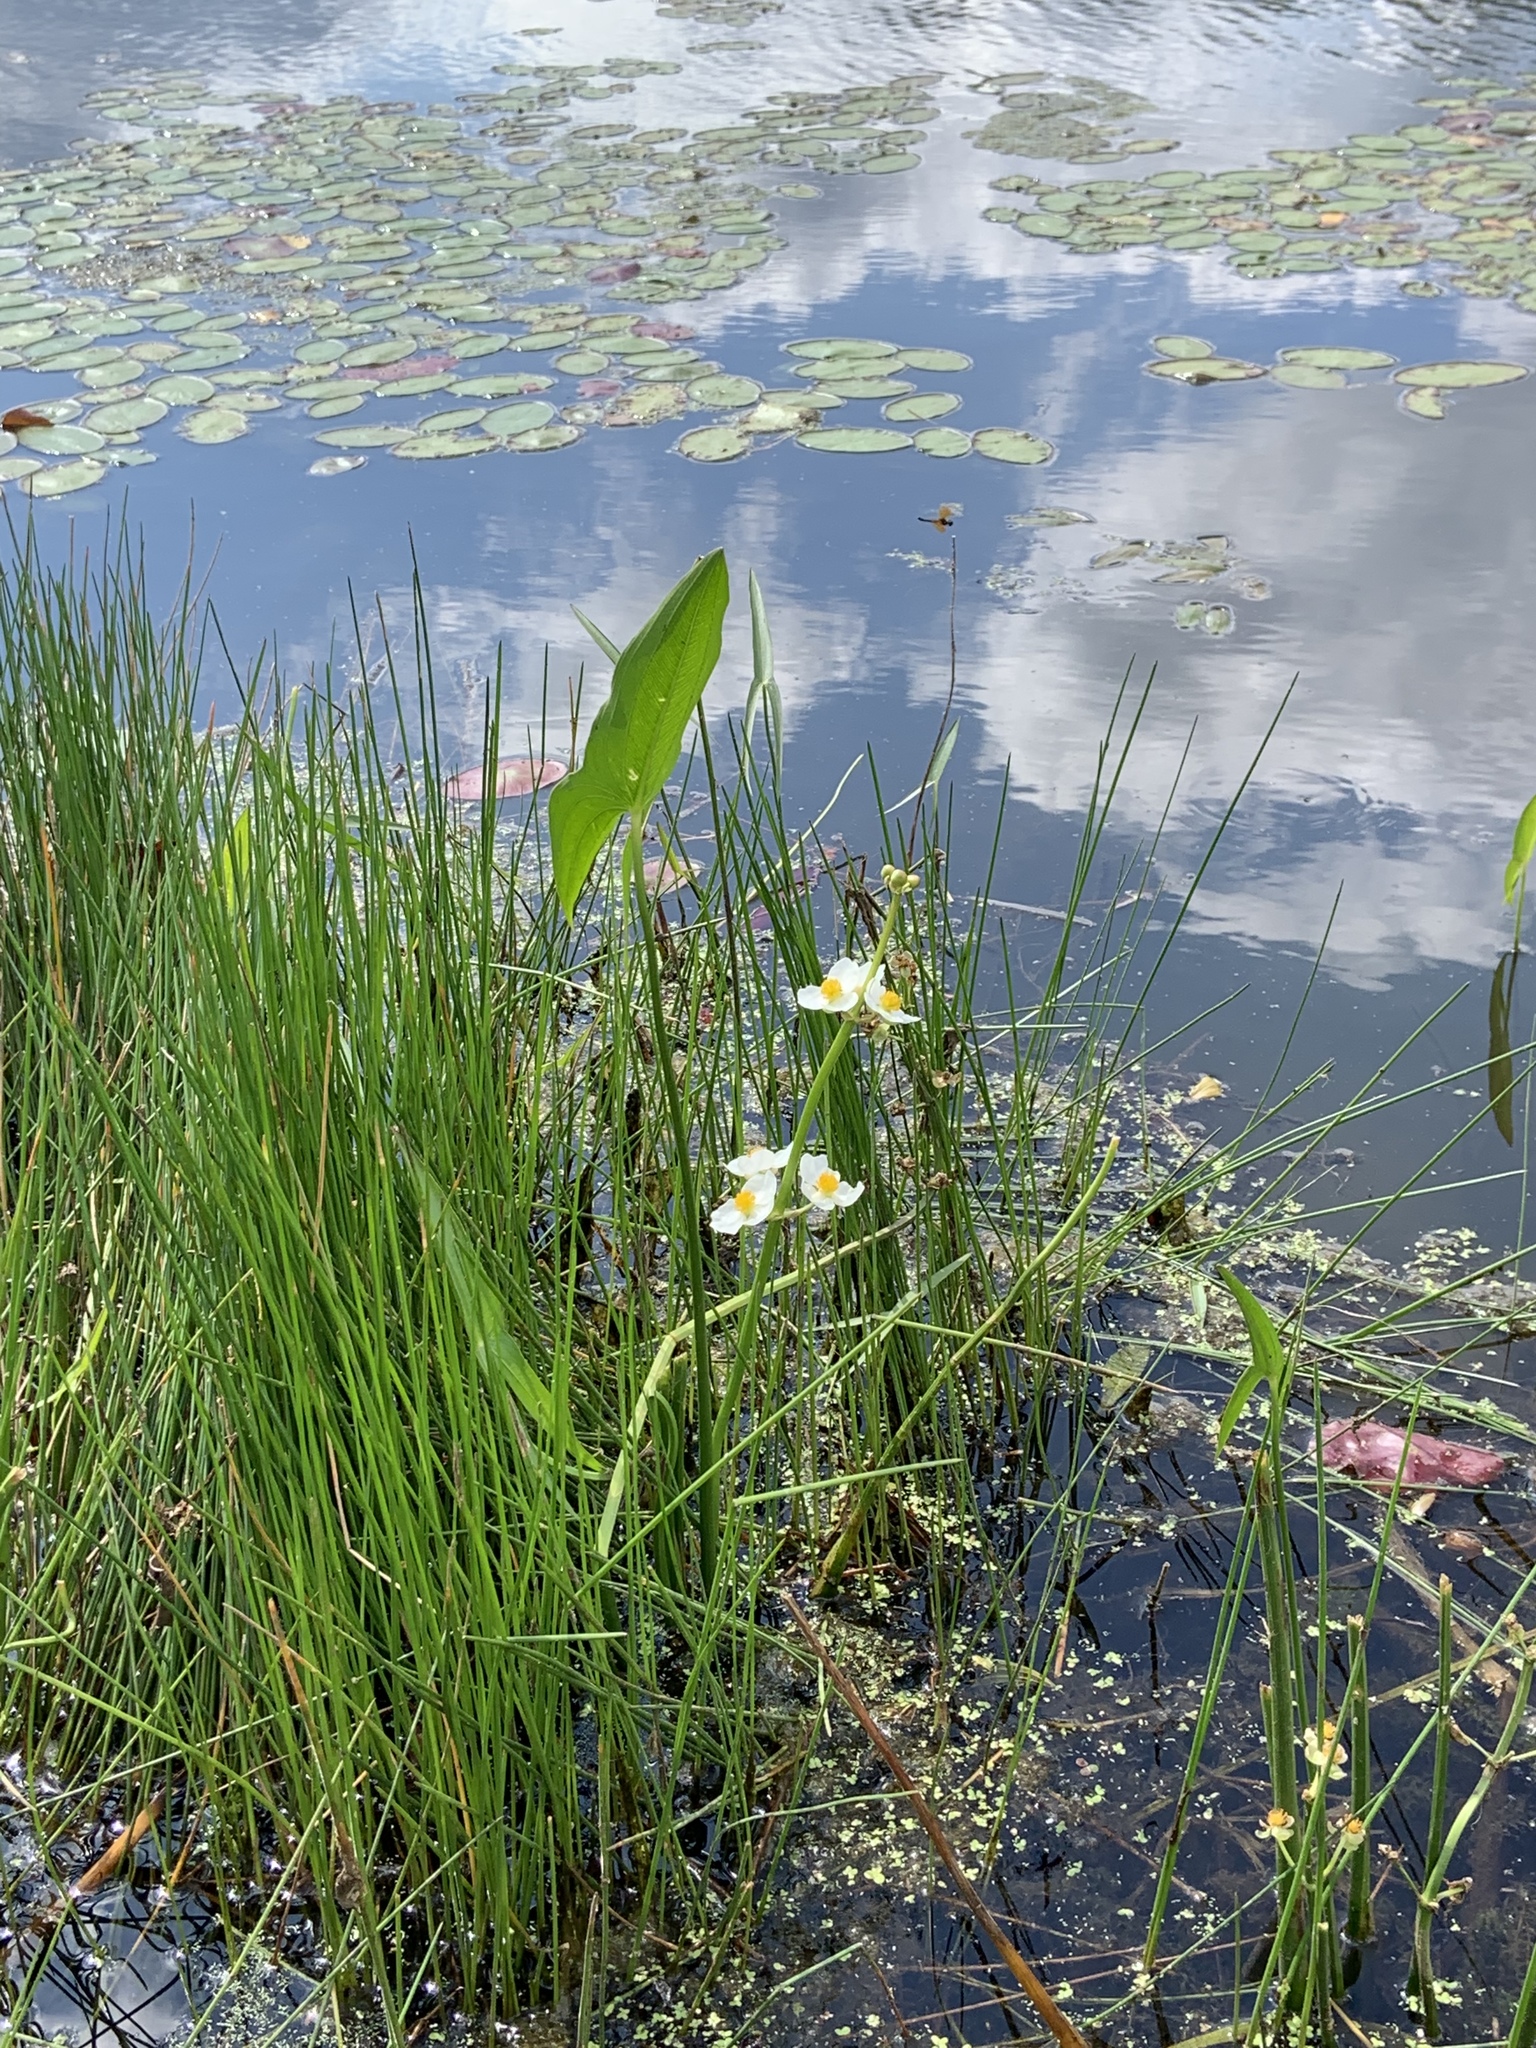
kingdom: Plantae
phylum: Tracheophyta
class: Liliopsida
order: Alismatales
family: Alismataceae
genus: Sagittaria
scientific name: Sagittaria latifolia
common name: Duck-potato
